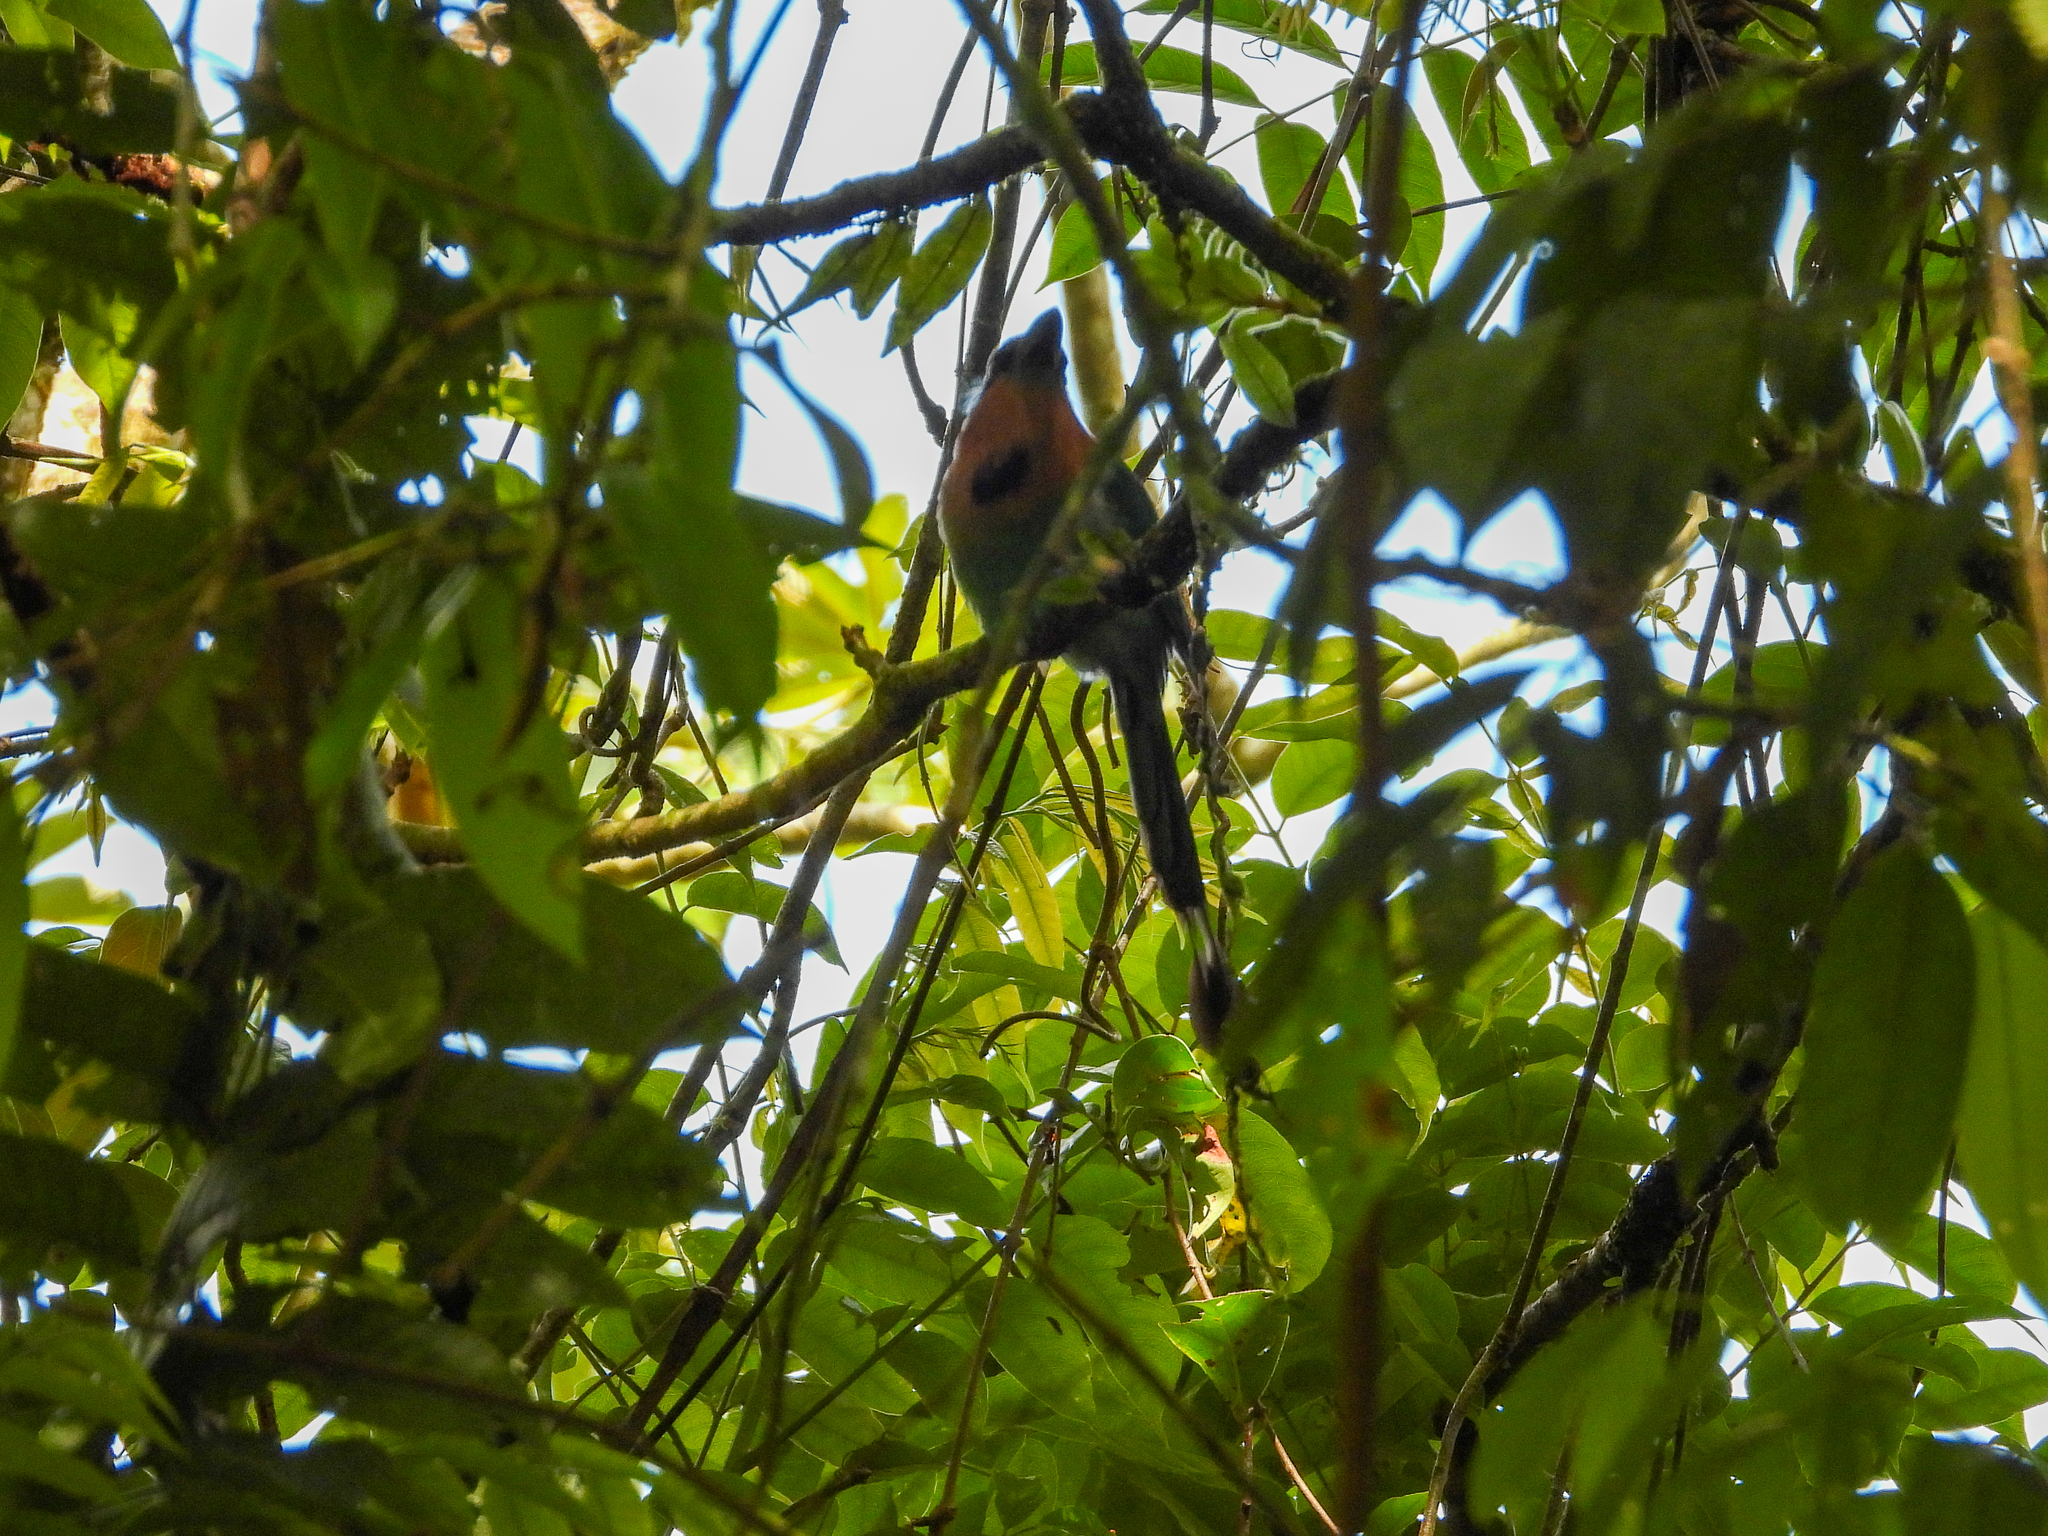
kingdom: Animalia
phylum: Chordata
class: Aves
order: Coraciiformes
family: Momotidae
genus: Electron
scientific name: Electron platyrhynchum
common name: Broad-billed motmot
